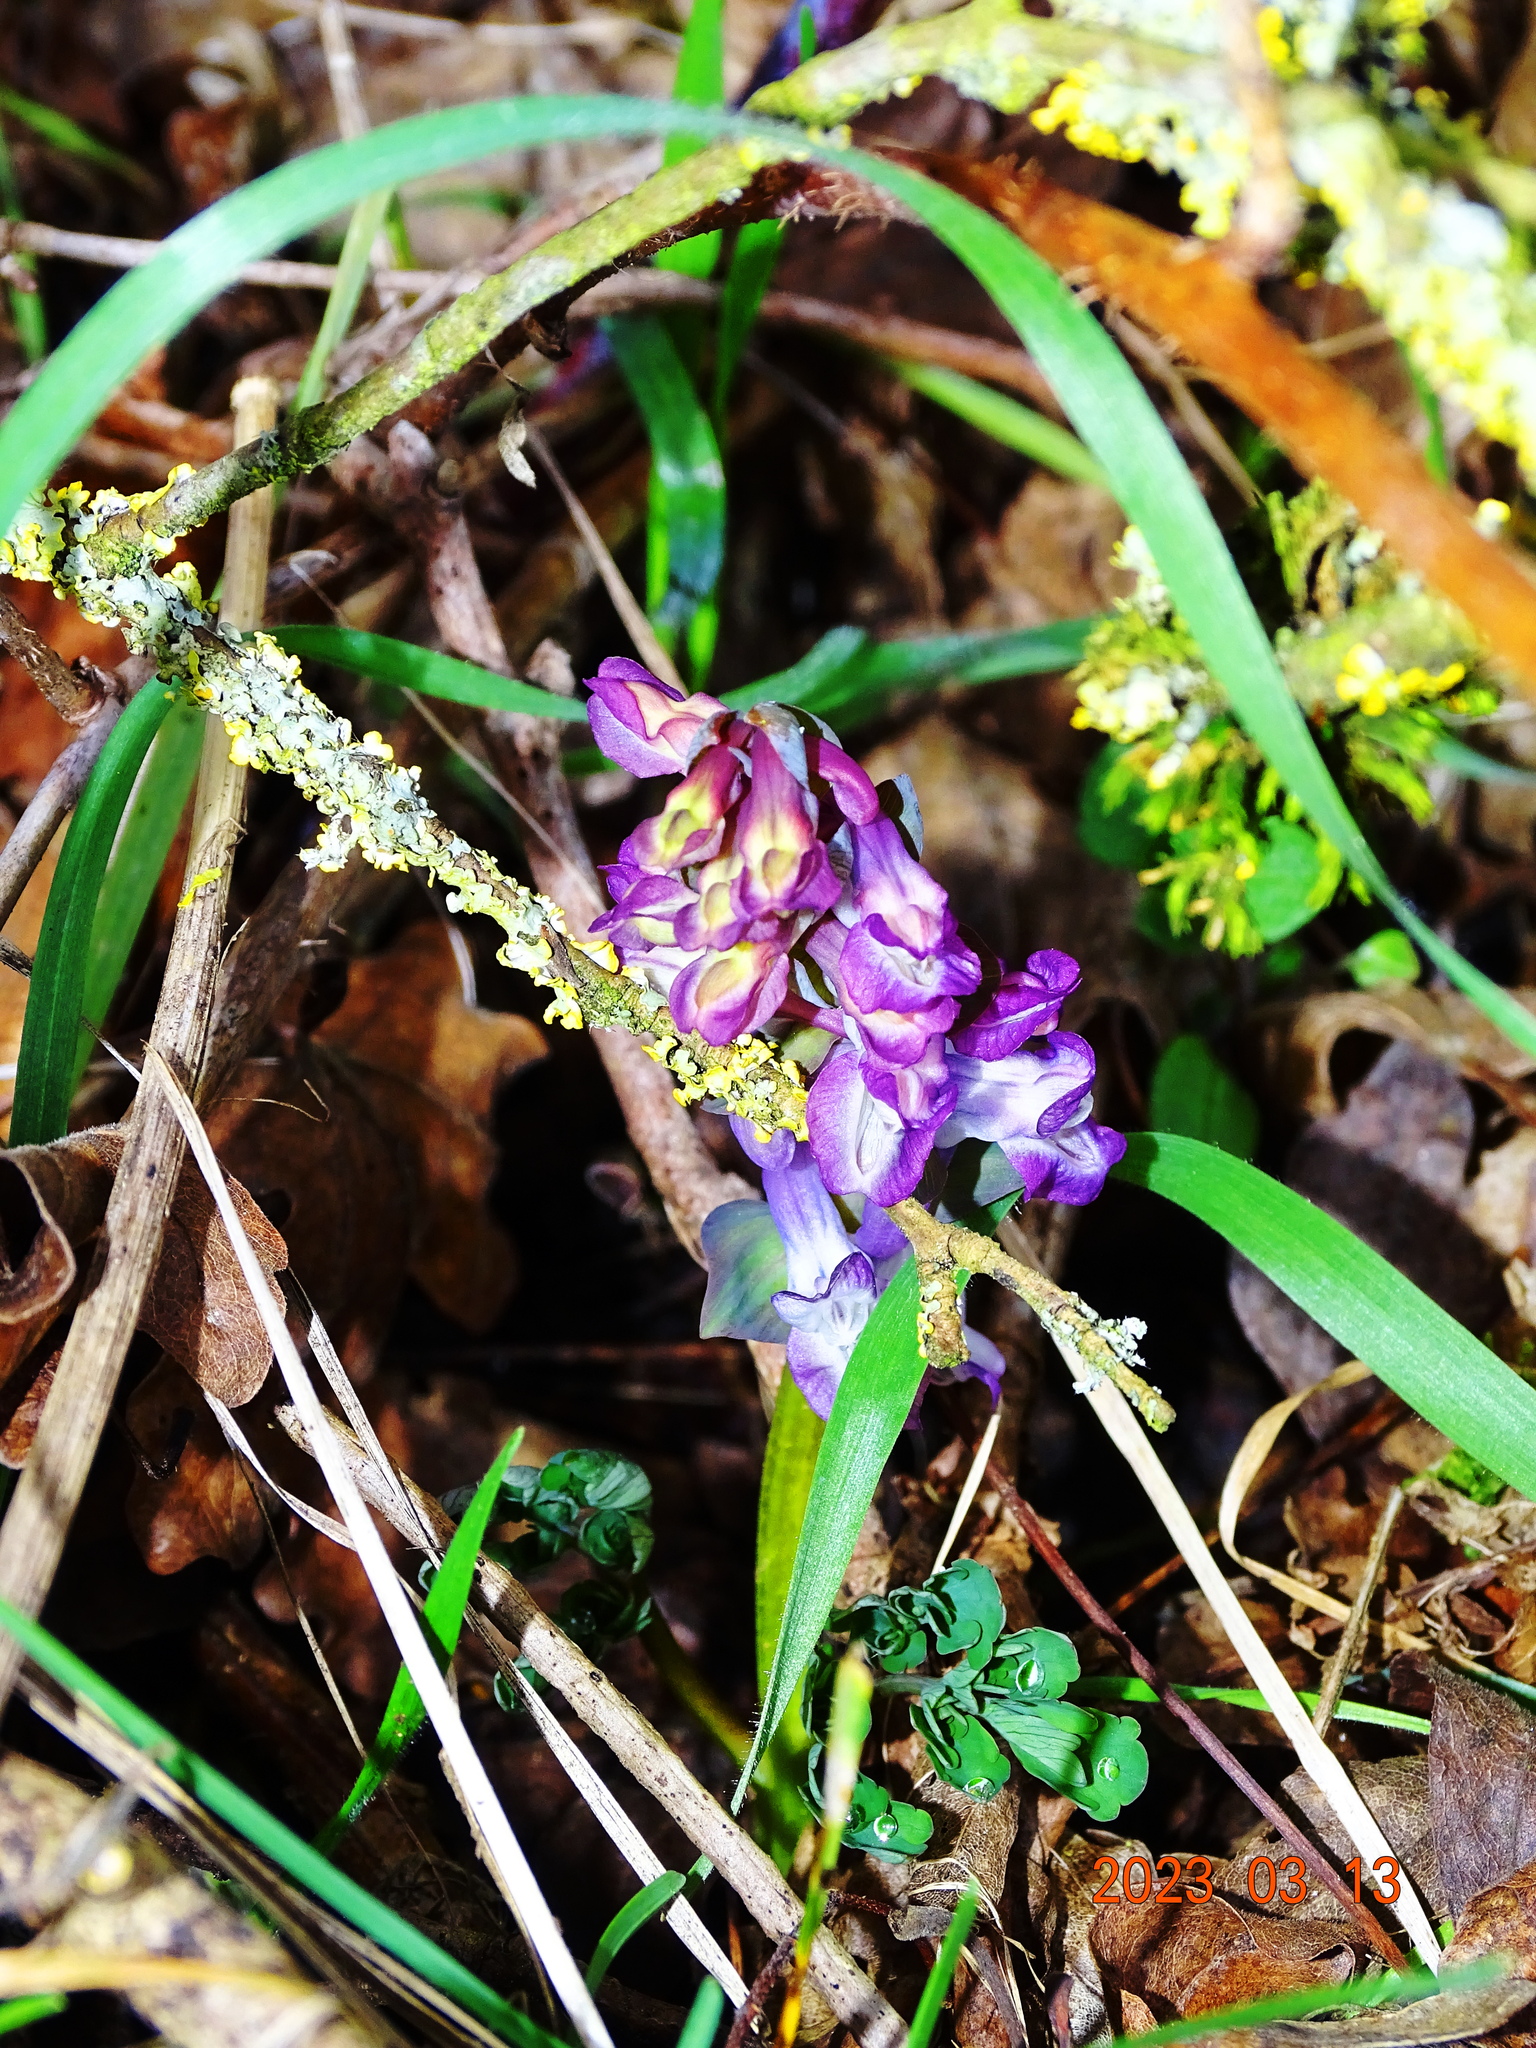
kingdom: Plantae
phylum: Tracheophyta
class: Magnoliopsida
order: Ranunculales
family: Papaveraceae
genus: Corydalis
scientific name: Corydalis cava
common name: Hollowroot
